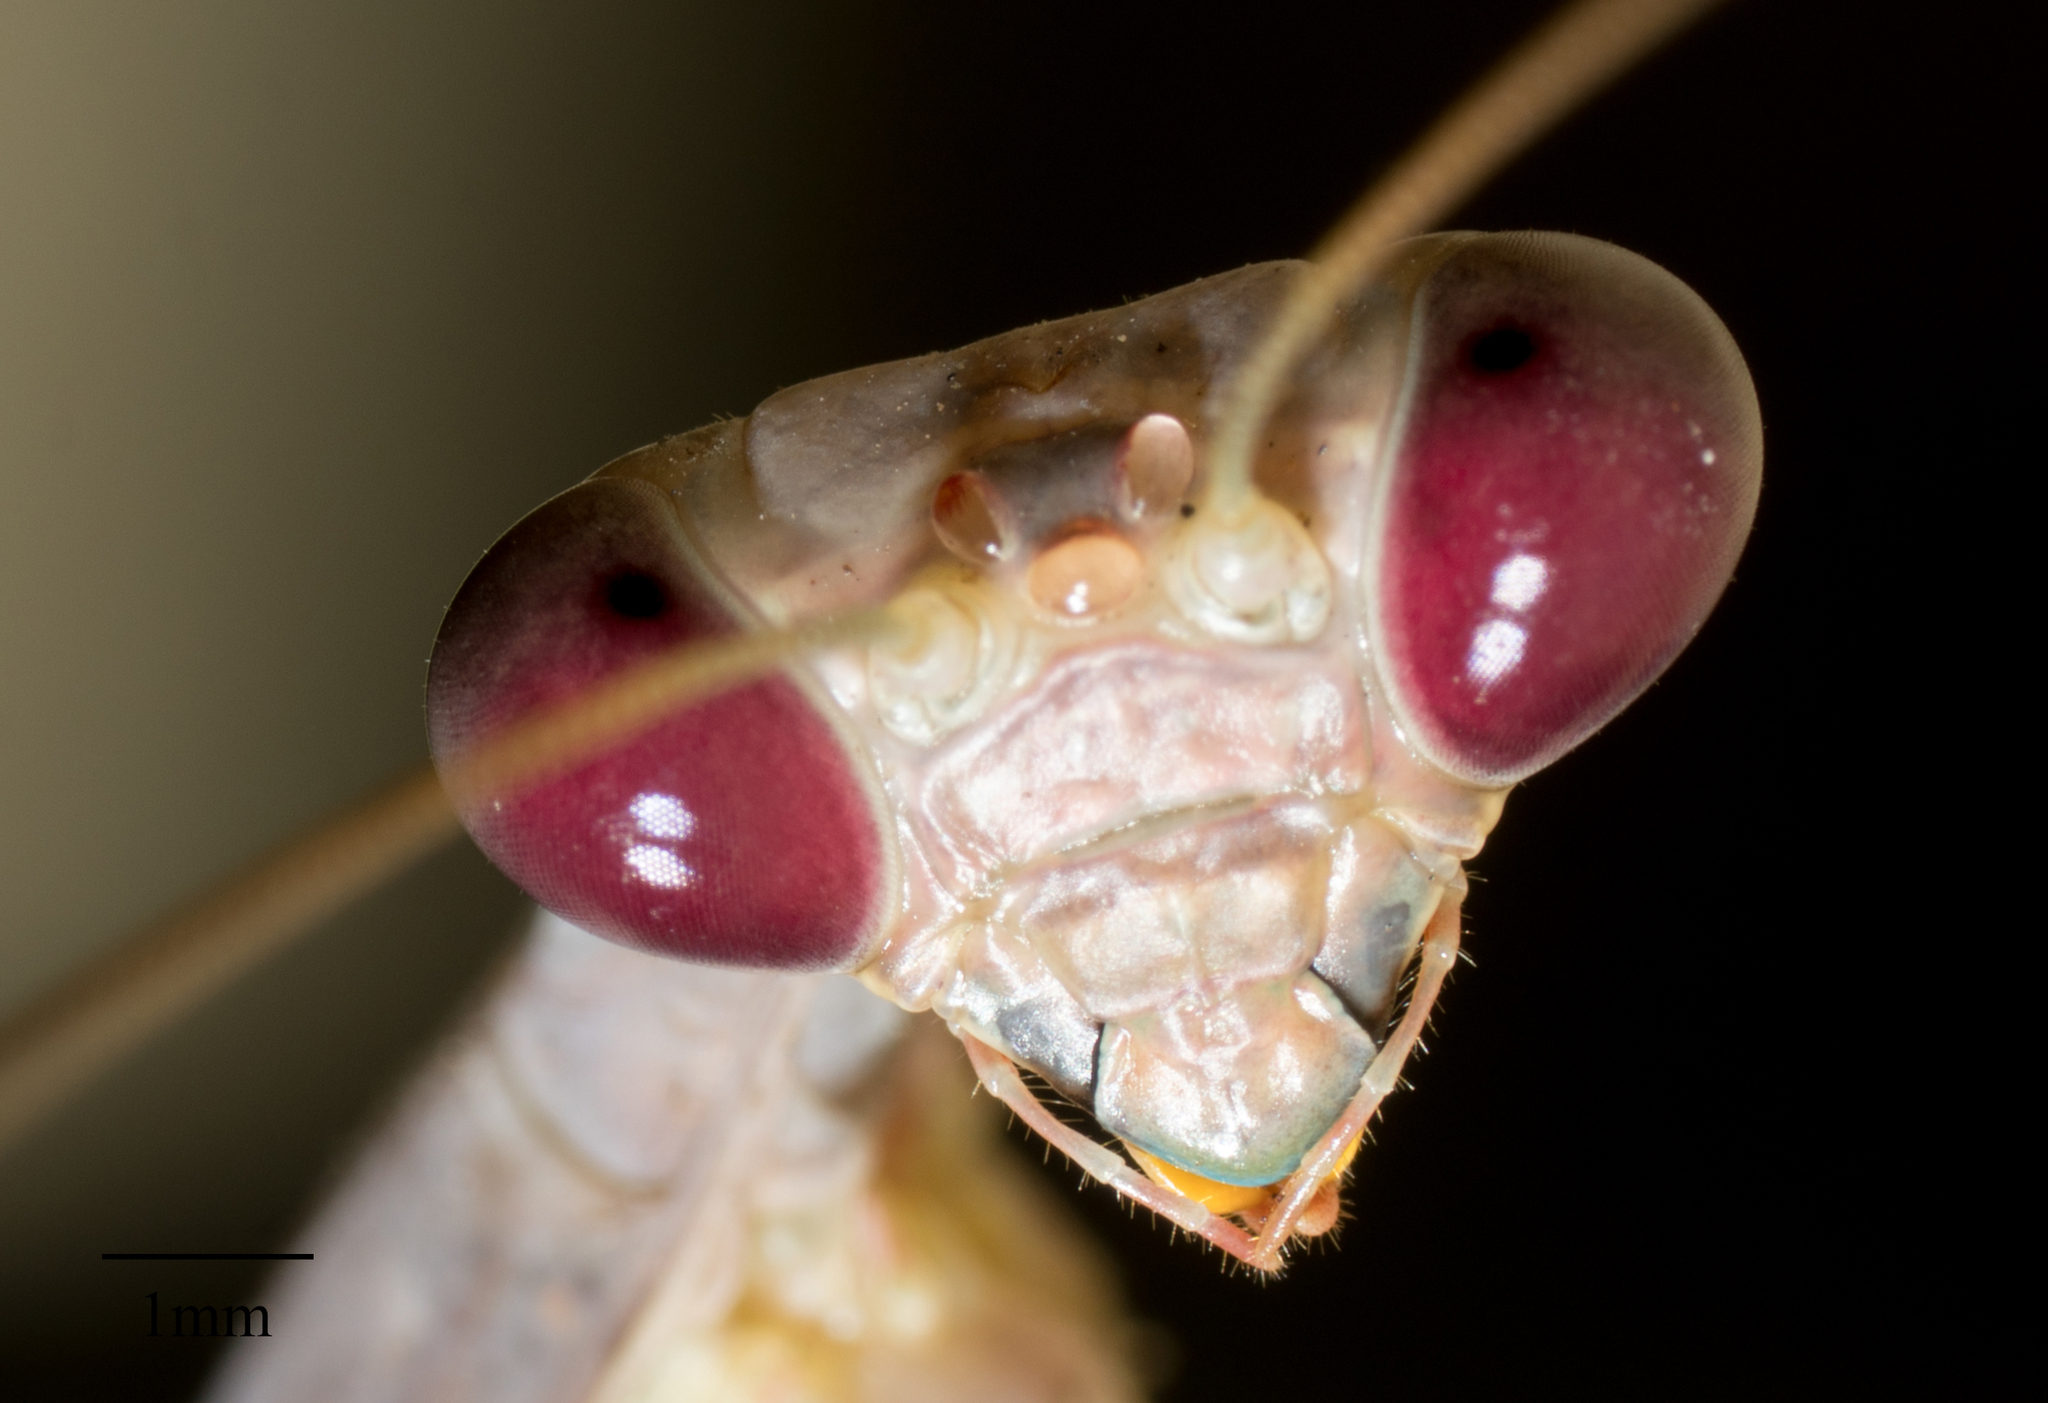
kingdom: Animalia
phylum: Arthropoda
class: Insecta
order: Mantodea
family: Mantidae
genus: Stagmomantis
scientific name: Stagmomantis limbata
